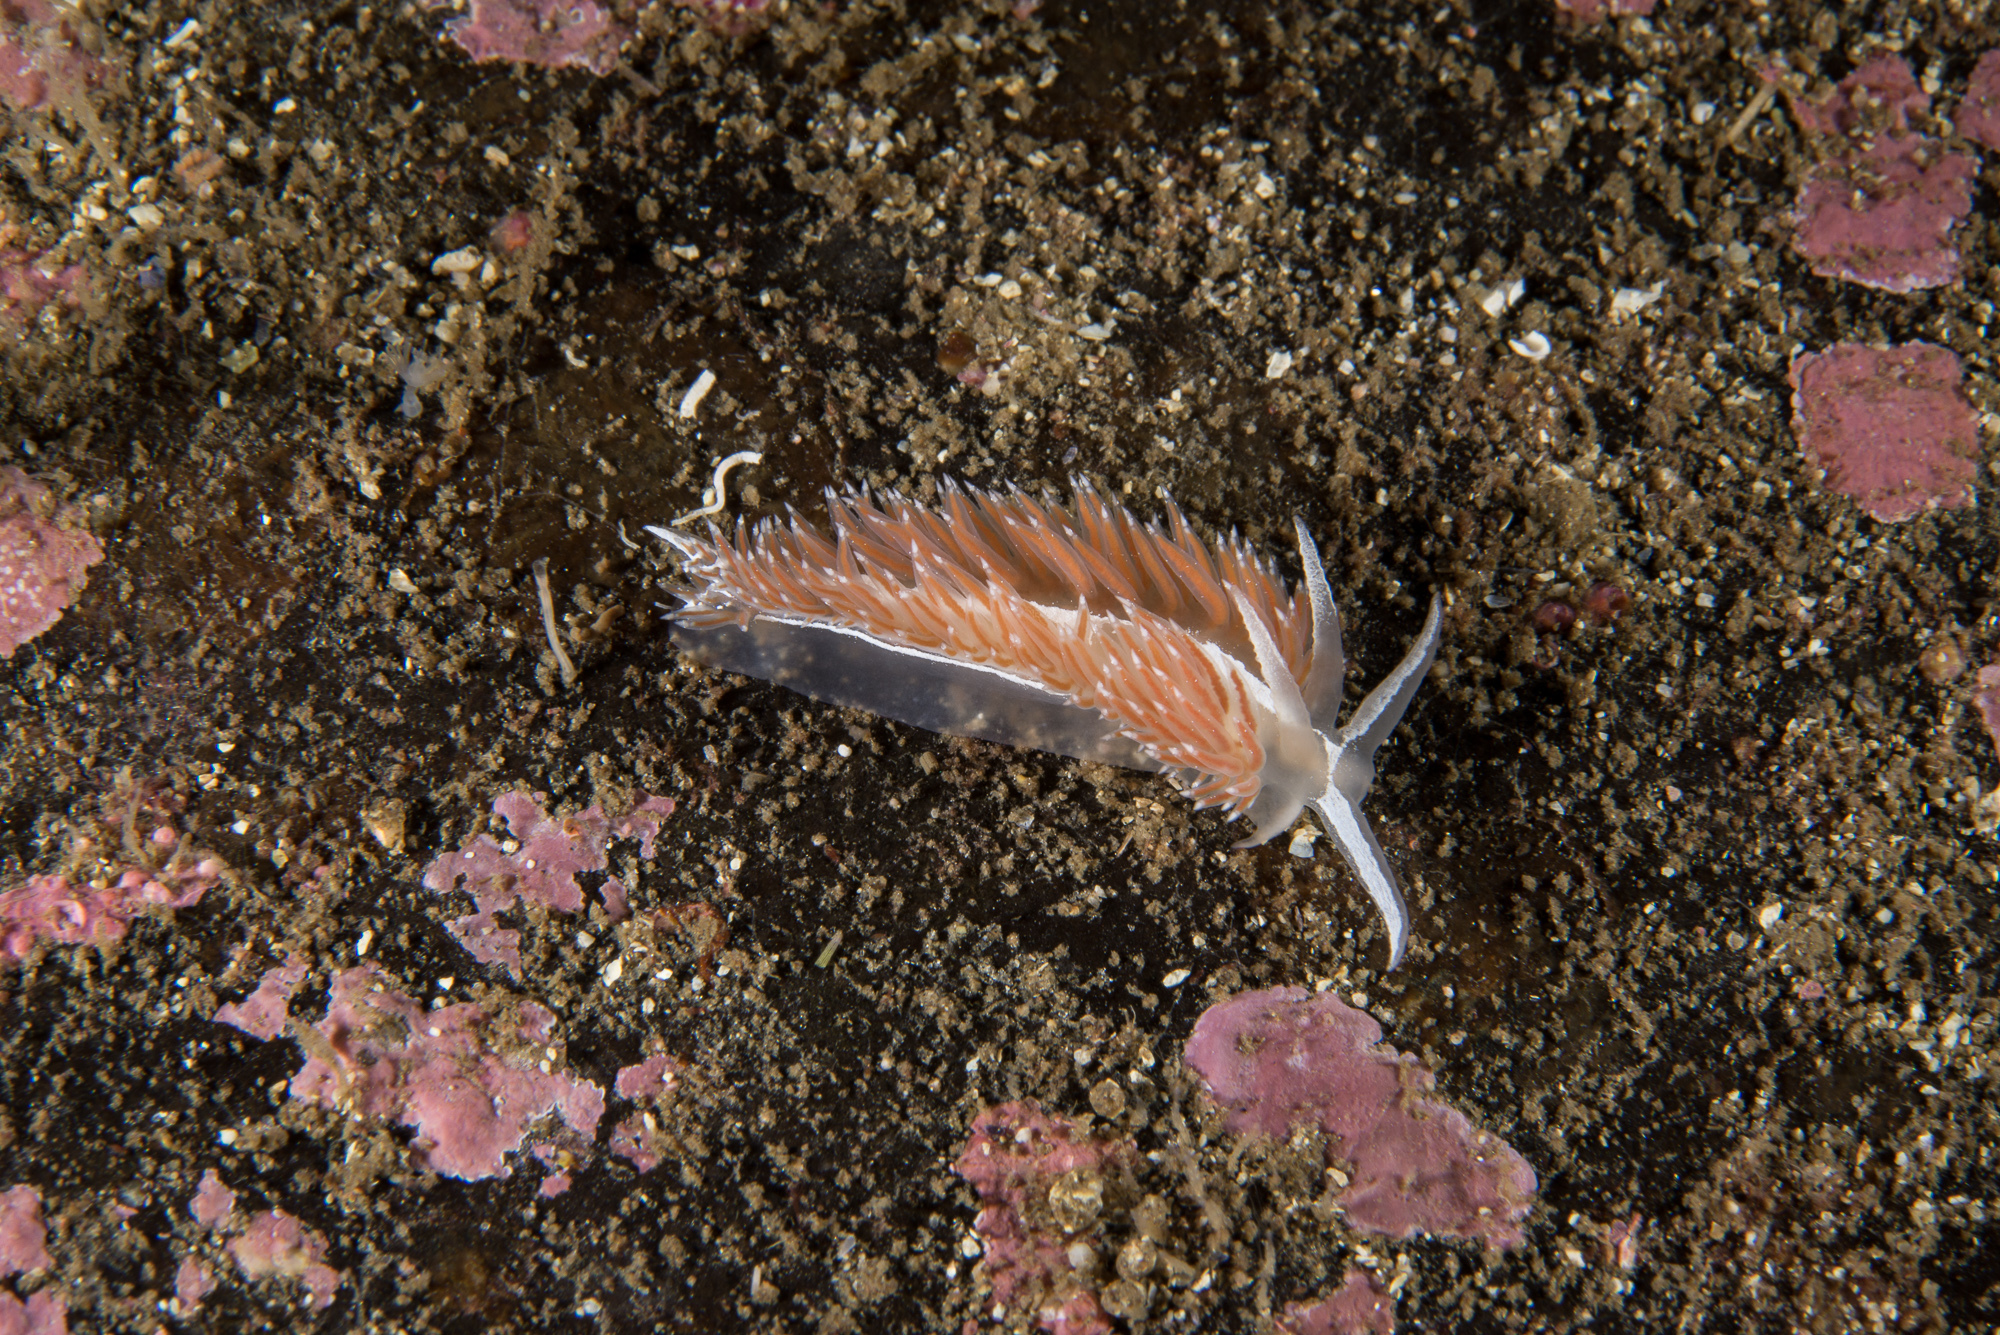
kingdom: Animalia
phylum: Mollusca
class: Gastropoda
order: Nudibranchia
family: Coryphellidae
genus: Coryphella
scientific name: Coryphella monicae
